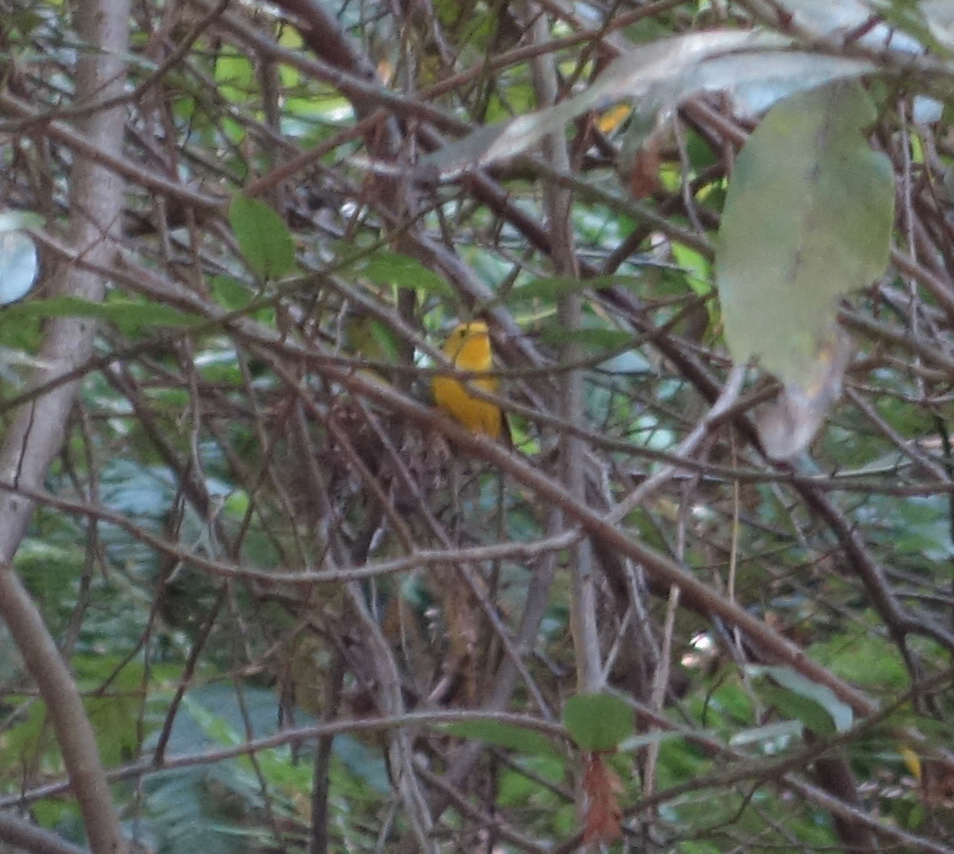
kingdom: Animalia
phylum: Chordata
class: Aves
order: Passeriformes
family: Parulidae
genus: Cardellina
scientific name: Cardellina pusilla
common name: Wilson's warbler
